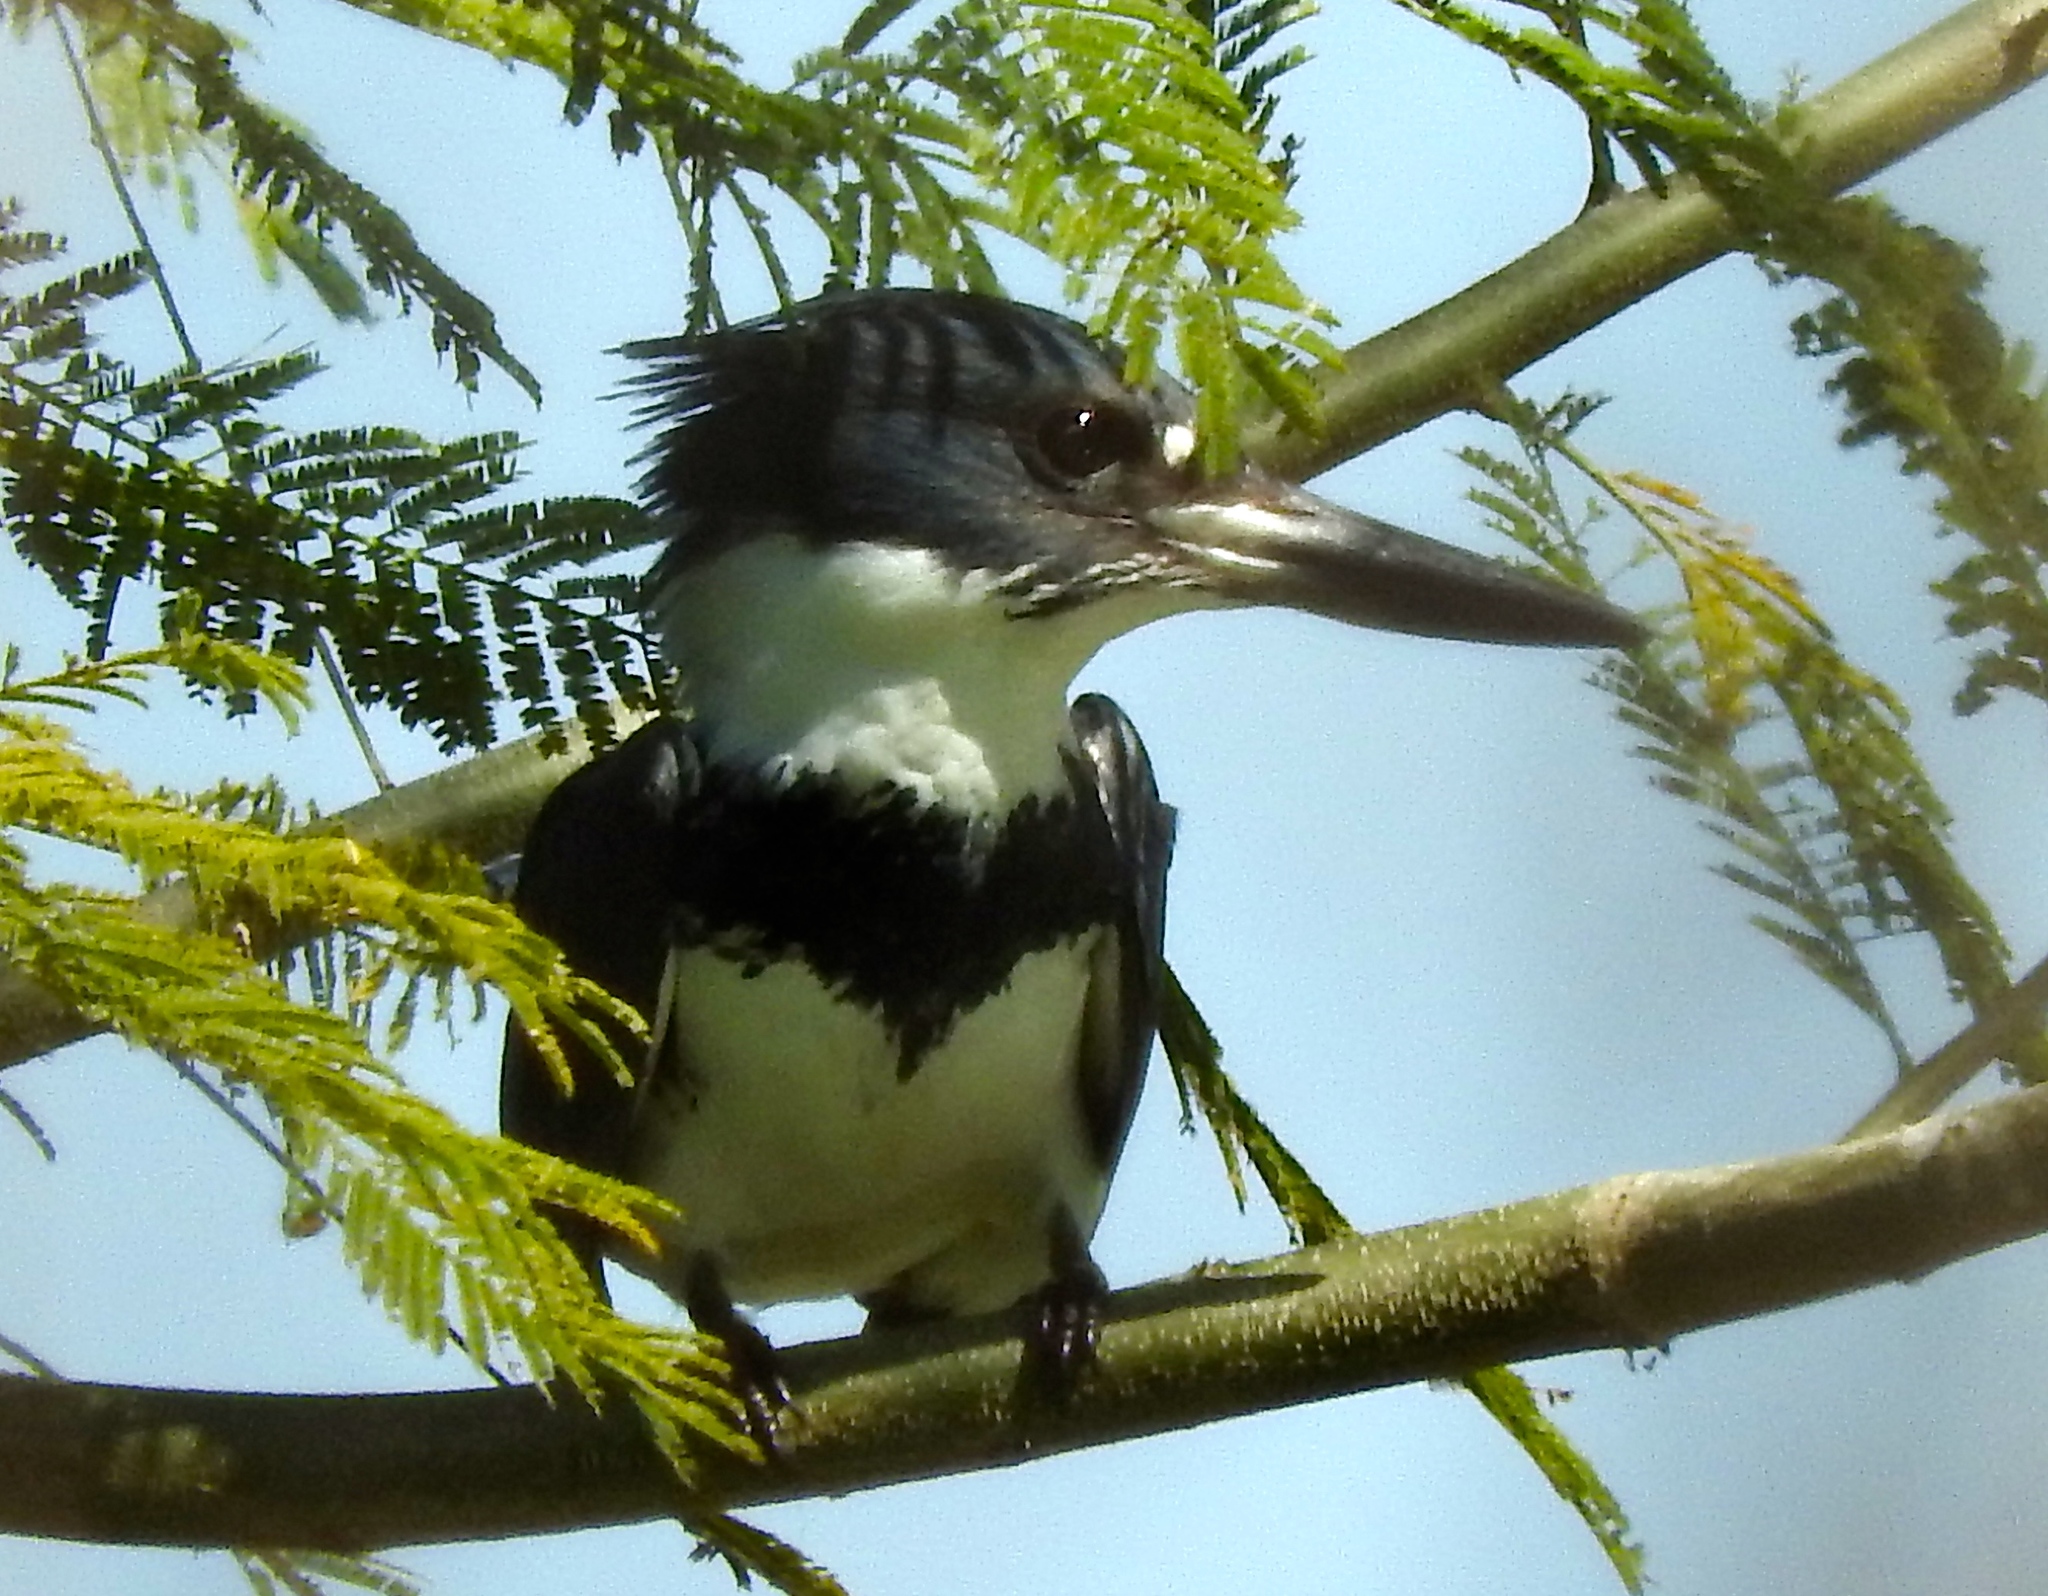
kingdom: Animalia
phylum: Chordata
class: Aves
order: Coraciiformes
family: Alcedinidae
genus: Megaceryle
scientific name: Megaceryle alcyon
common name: Belted kingfisher
